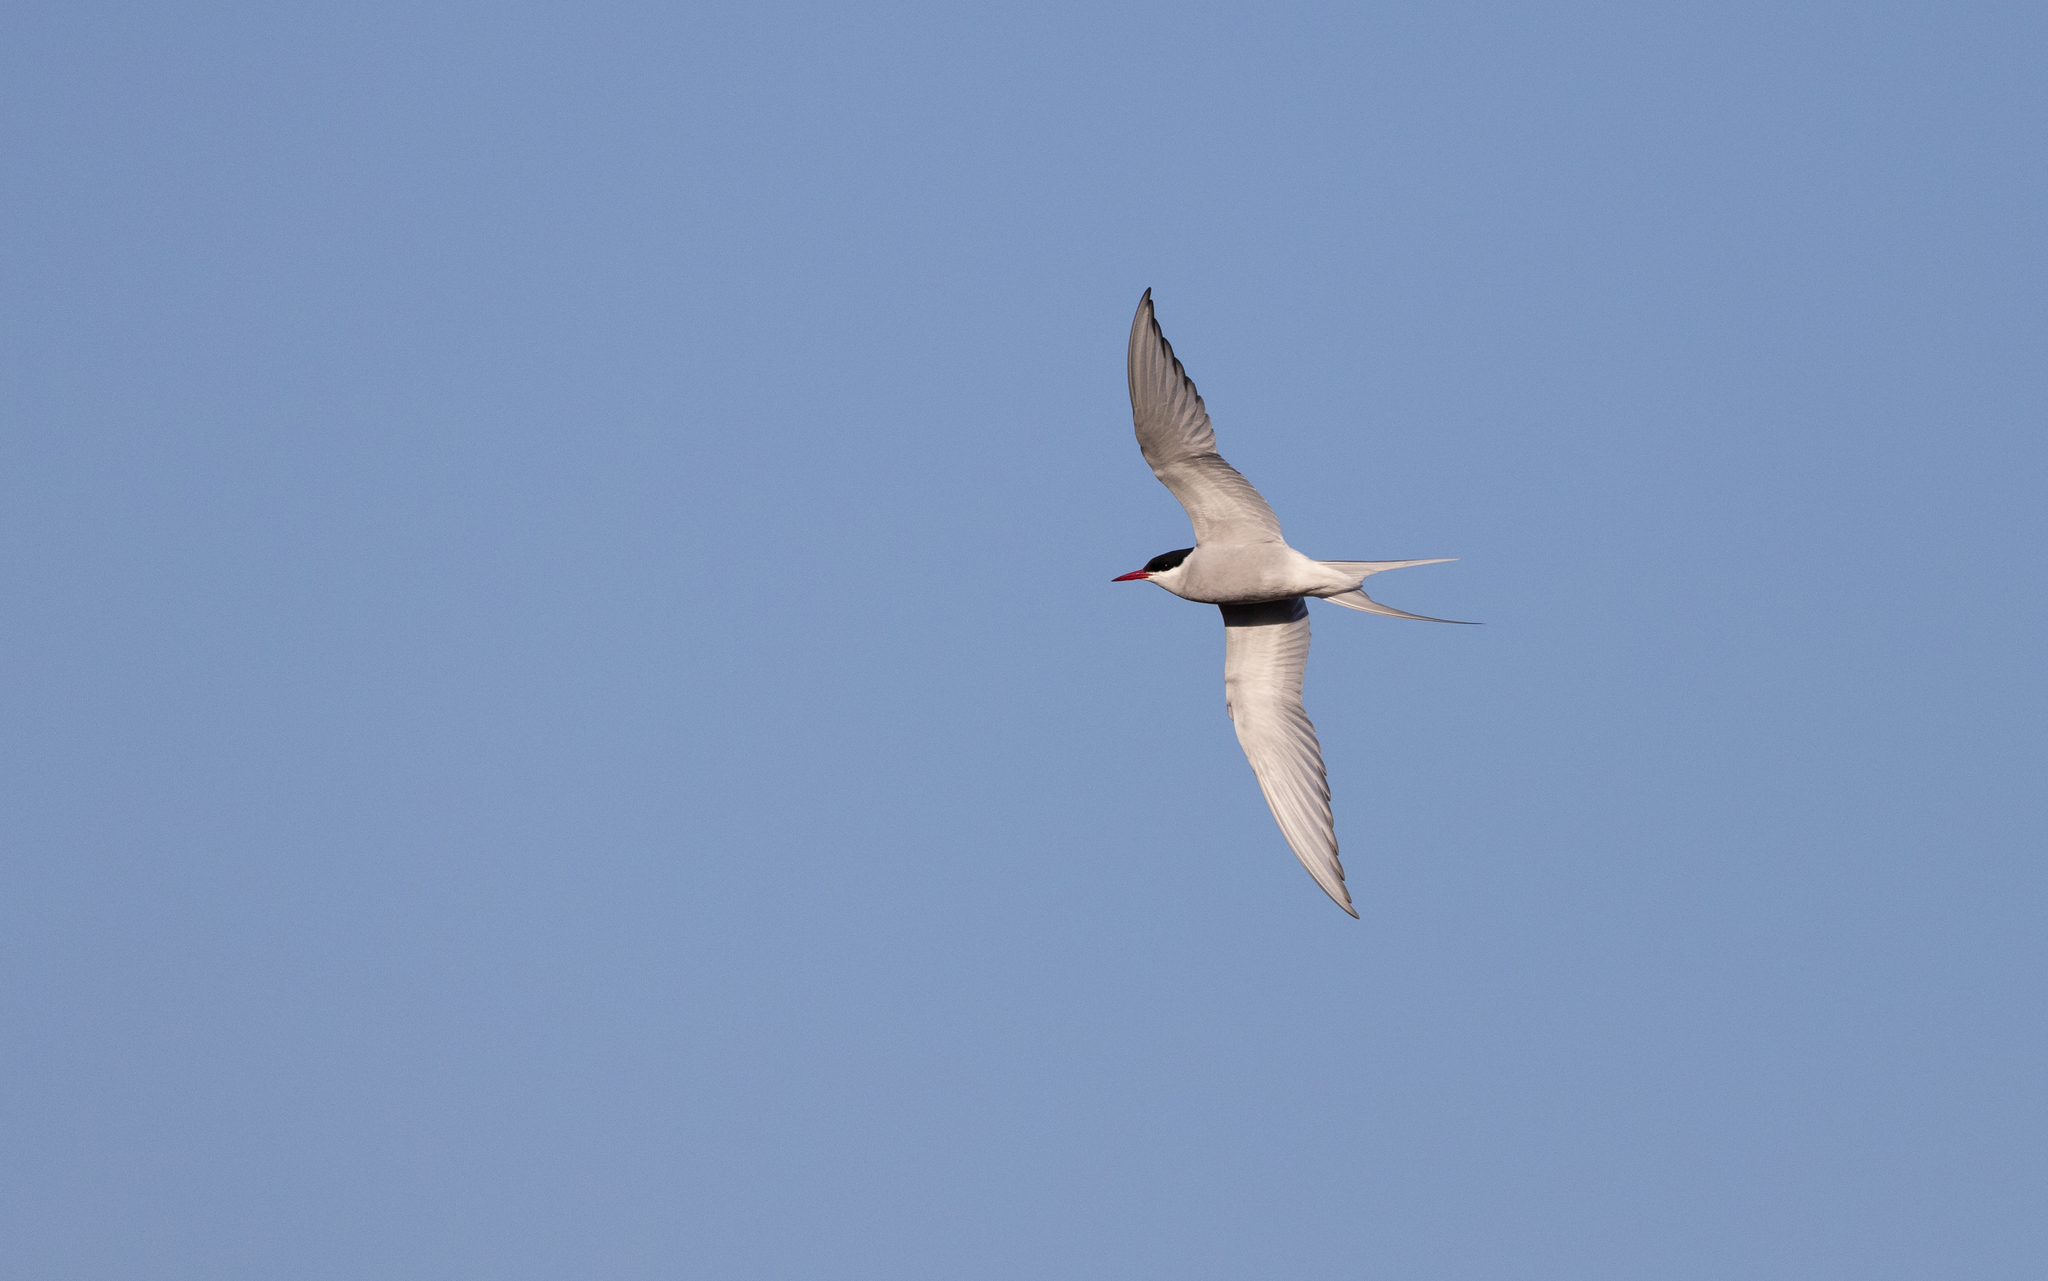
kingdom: Animalia
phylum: Chordata
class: Aves
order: Charadriiformes
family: Laridae
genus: Sterna
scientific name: Sterna paradisaea
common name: Arctic tern
